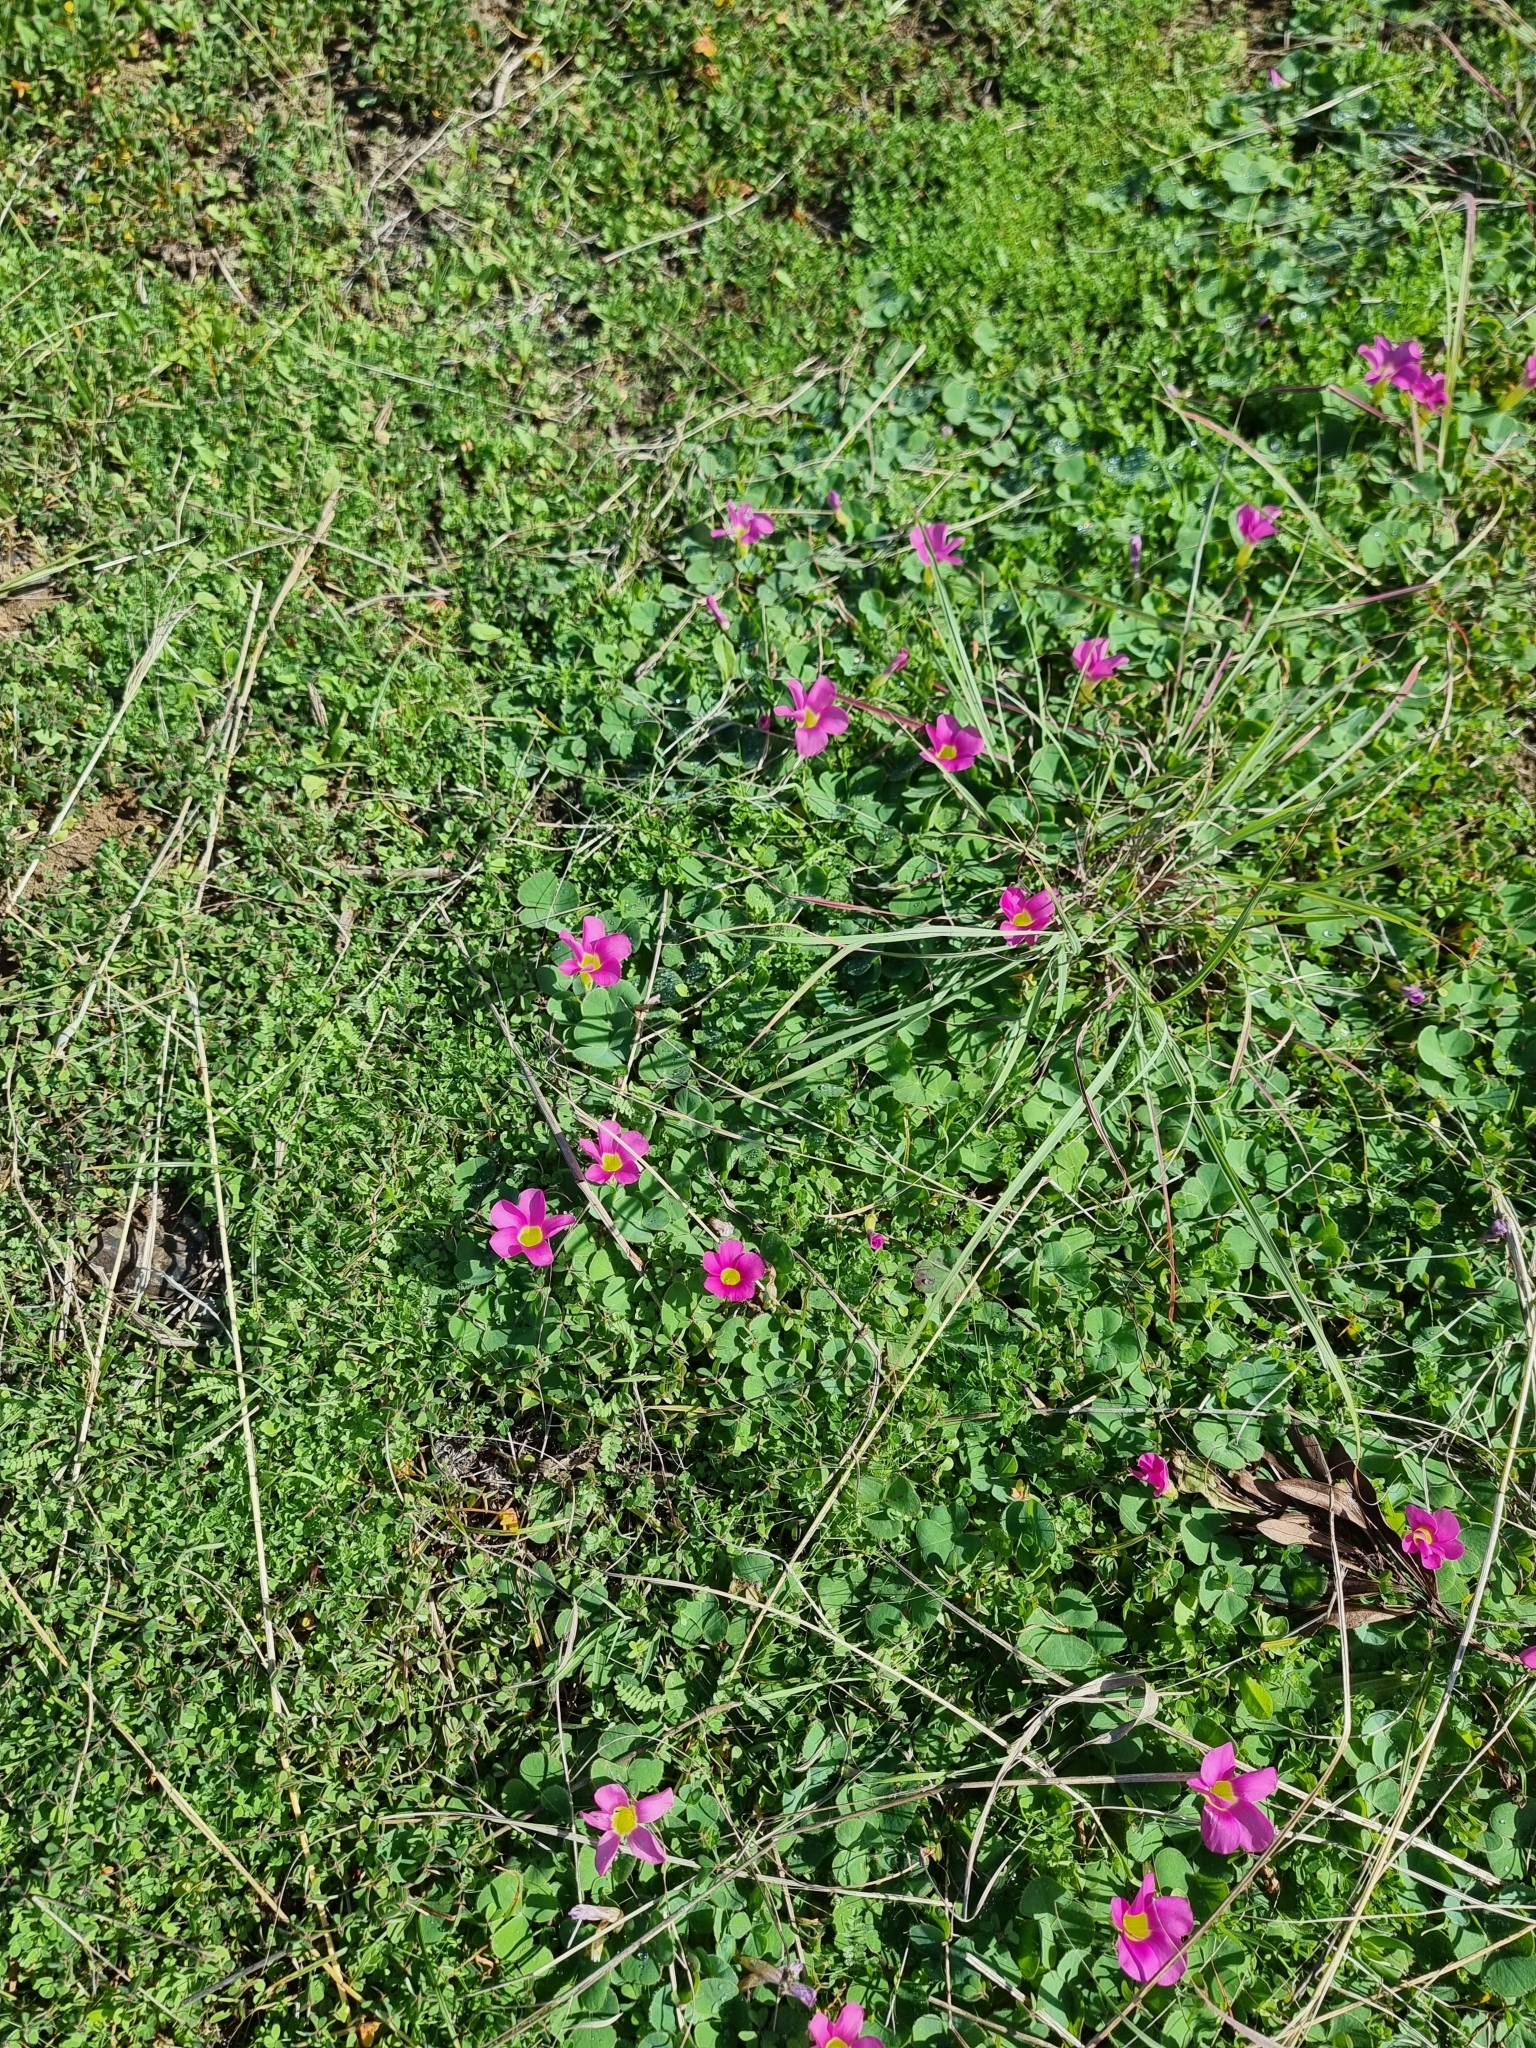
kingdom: Plantae
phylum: Tracheophyta
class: Magnoliopsida
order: Oxalidales
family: Oxalidaceae
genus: Oxalis
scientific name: Oxalis purpurea
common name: Purple woodsorrel
